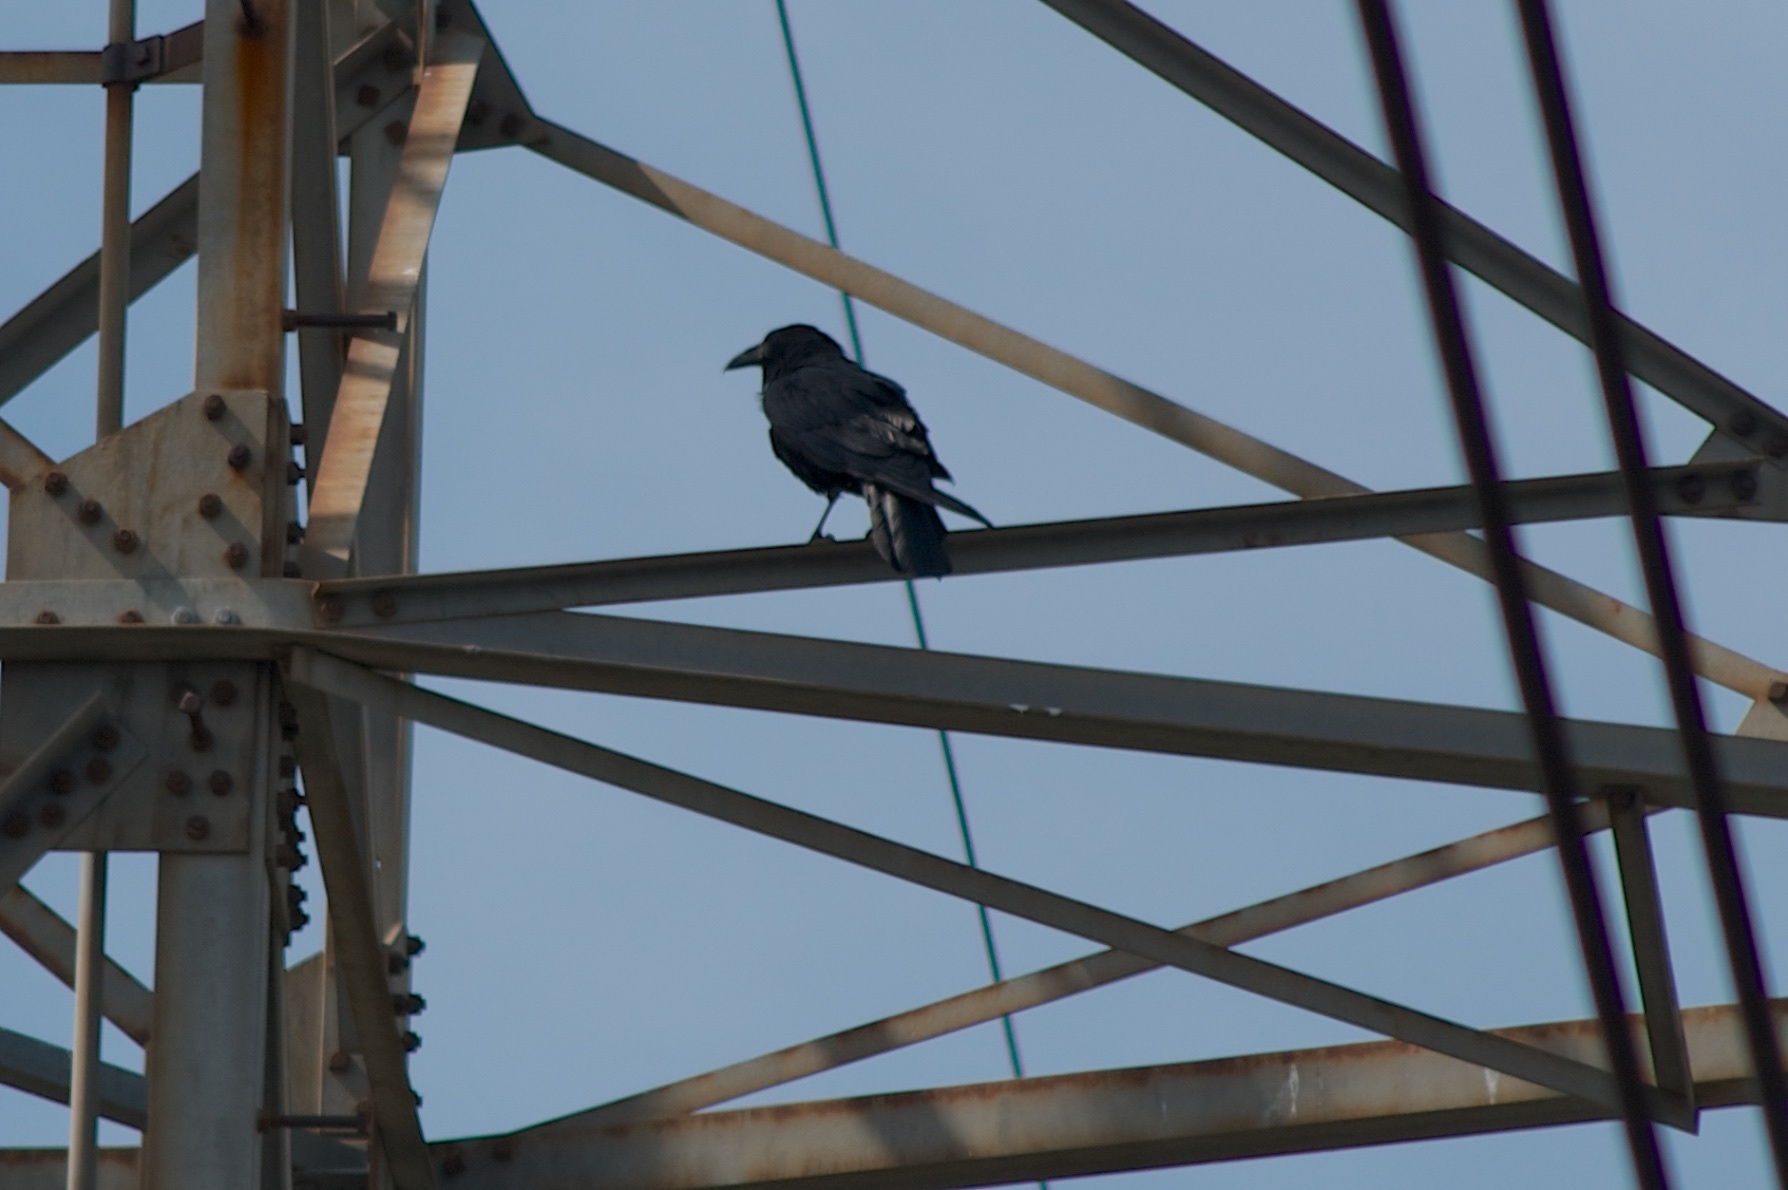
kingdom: Animalia
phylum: Chordata
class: Aves
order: Passeriformes
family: Corvidae
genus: Corvus
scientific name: Corvus corax
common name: Common raven
